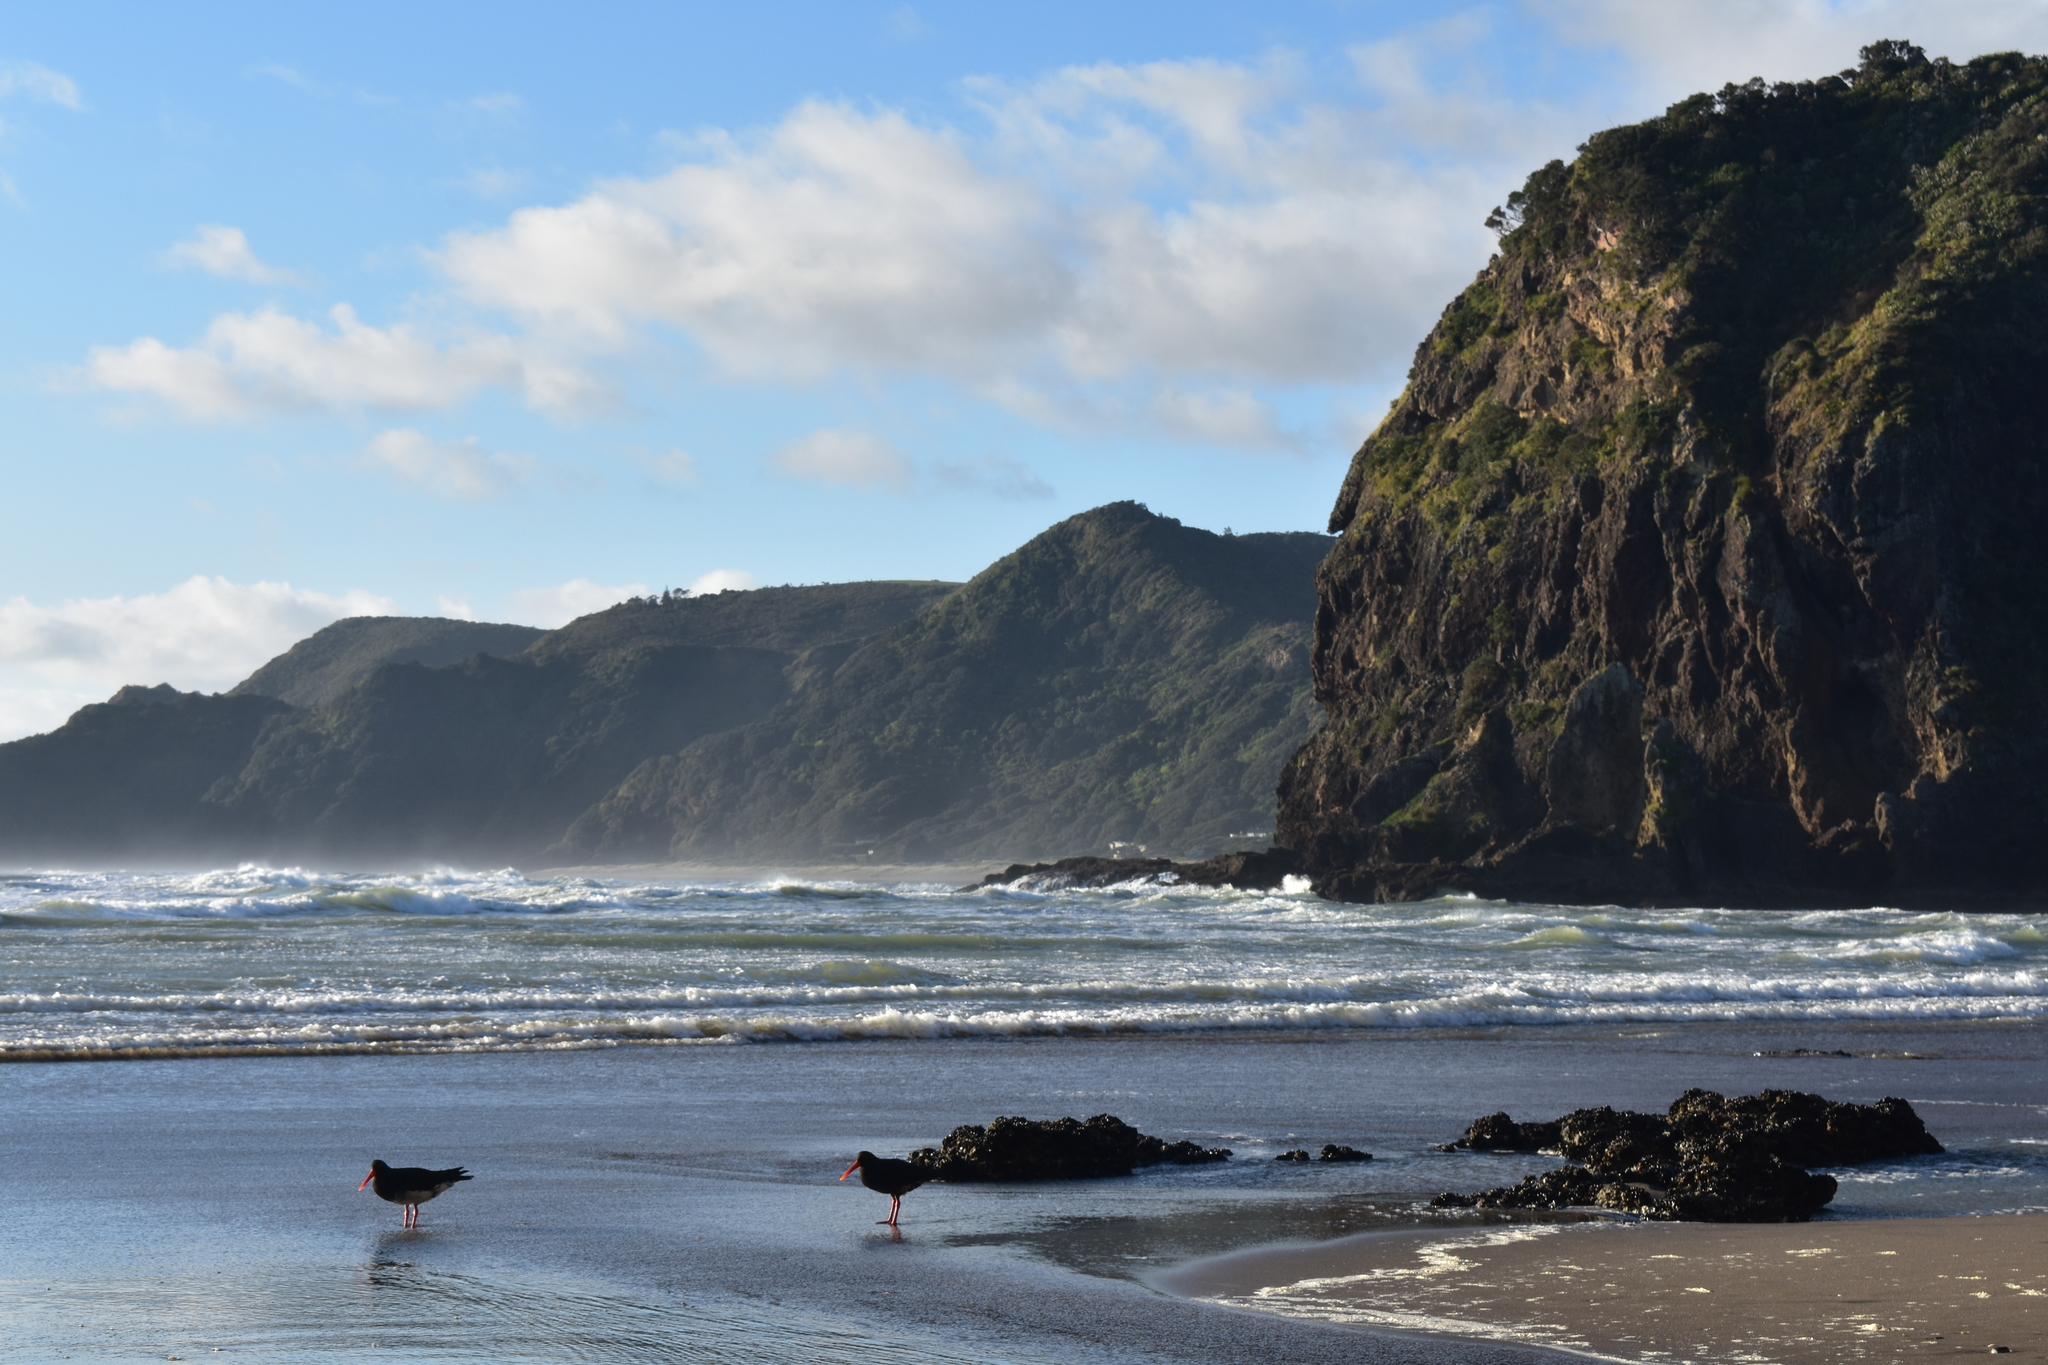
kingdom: Animalia
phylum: Chordata
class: Aves
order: Charadriiformes
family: Haematopodidae
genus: Haematopus
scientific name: Haematopus unicolor
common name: Variable oystercatcher
